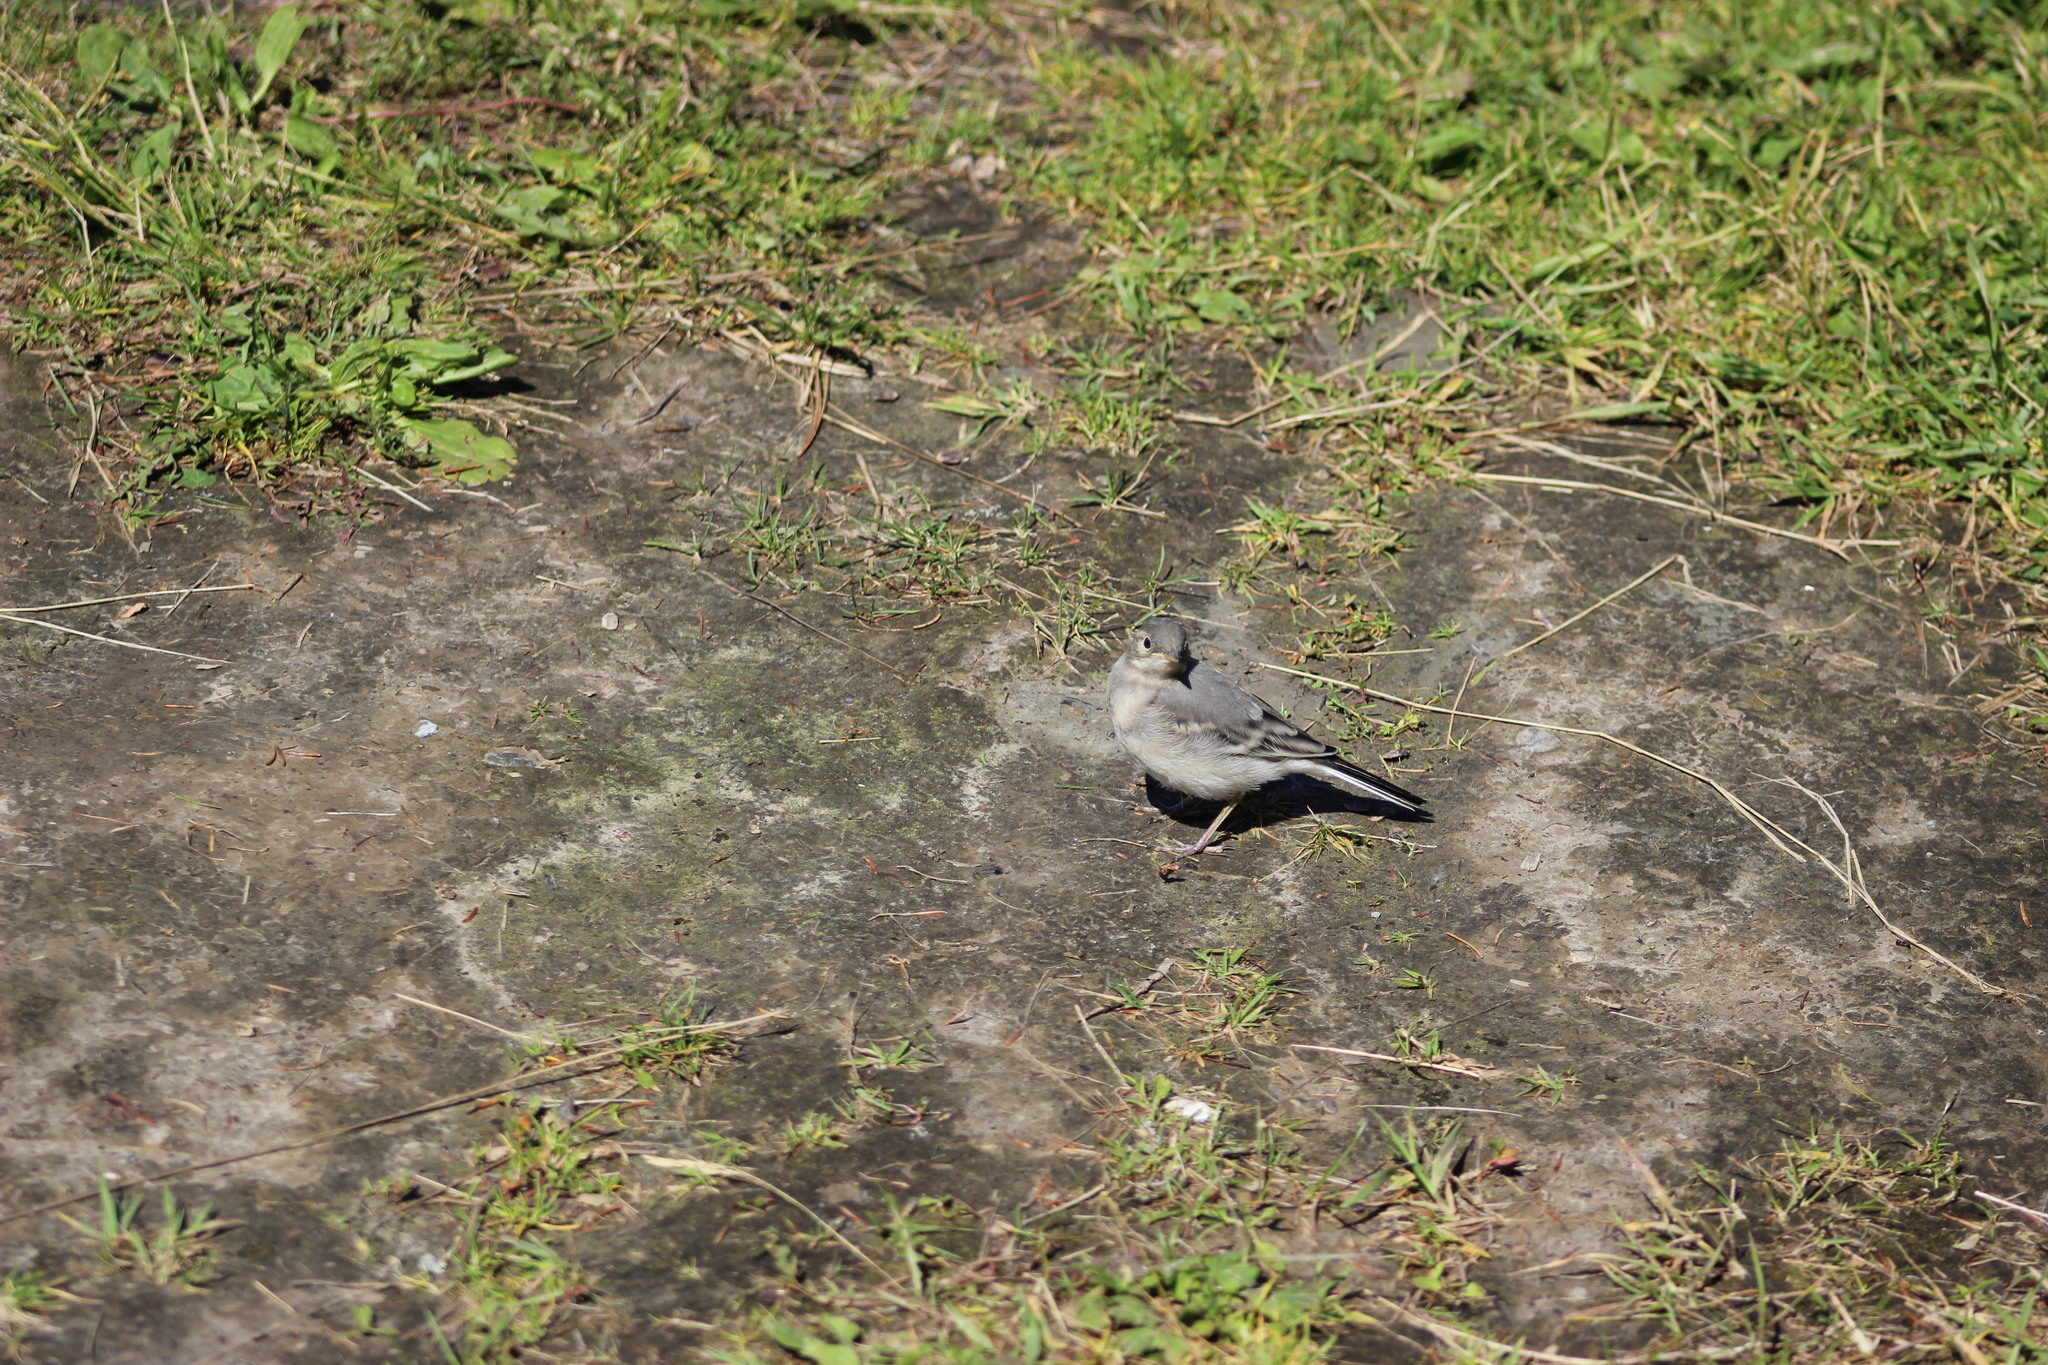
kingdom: Animalia
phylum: Chordata
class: Aves
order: Passeriformes
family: Motacillidae
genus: Motacilla
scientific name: Motacilla alba
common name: White wagtail
